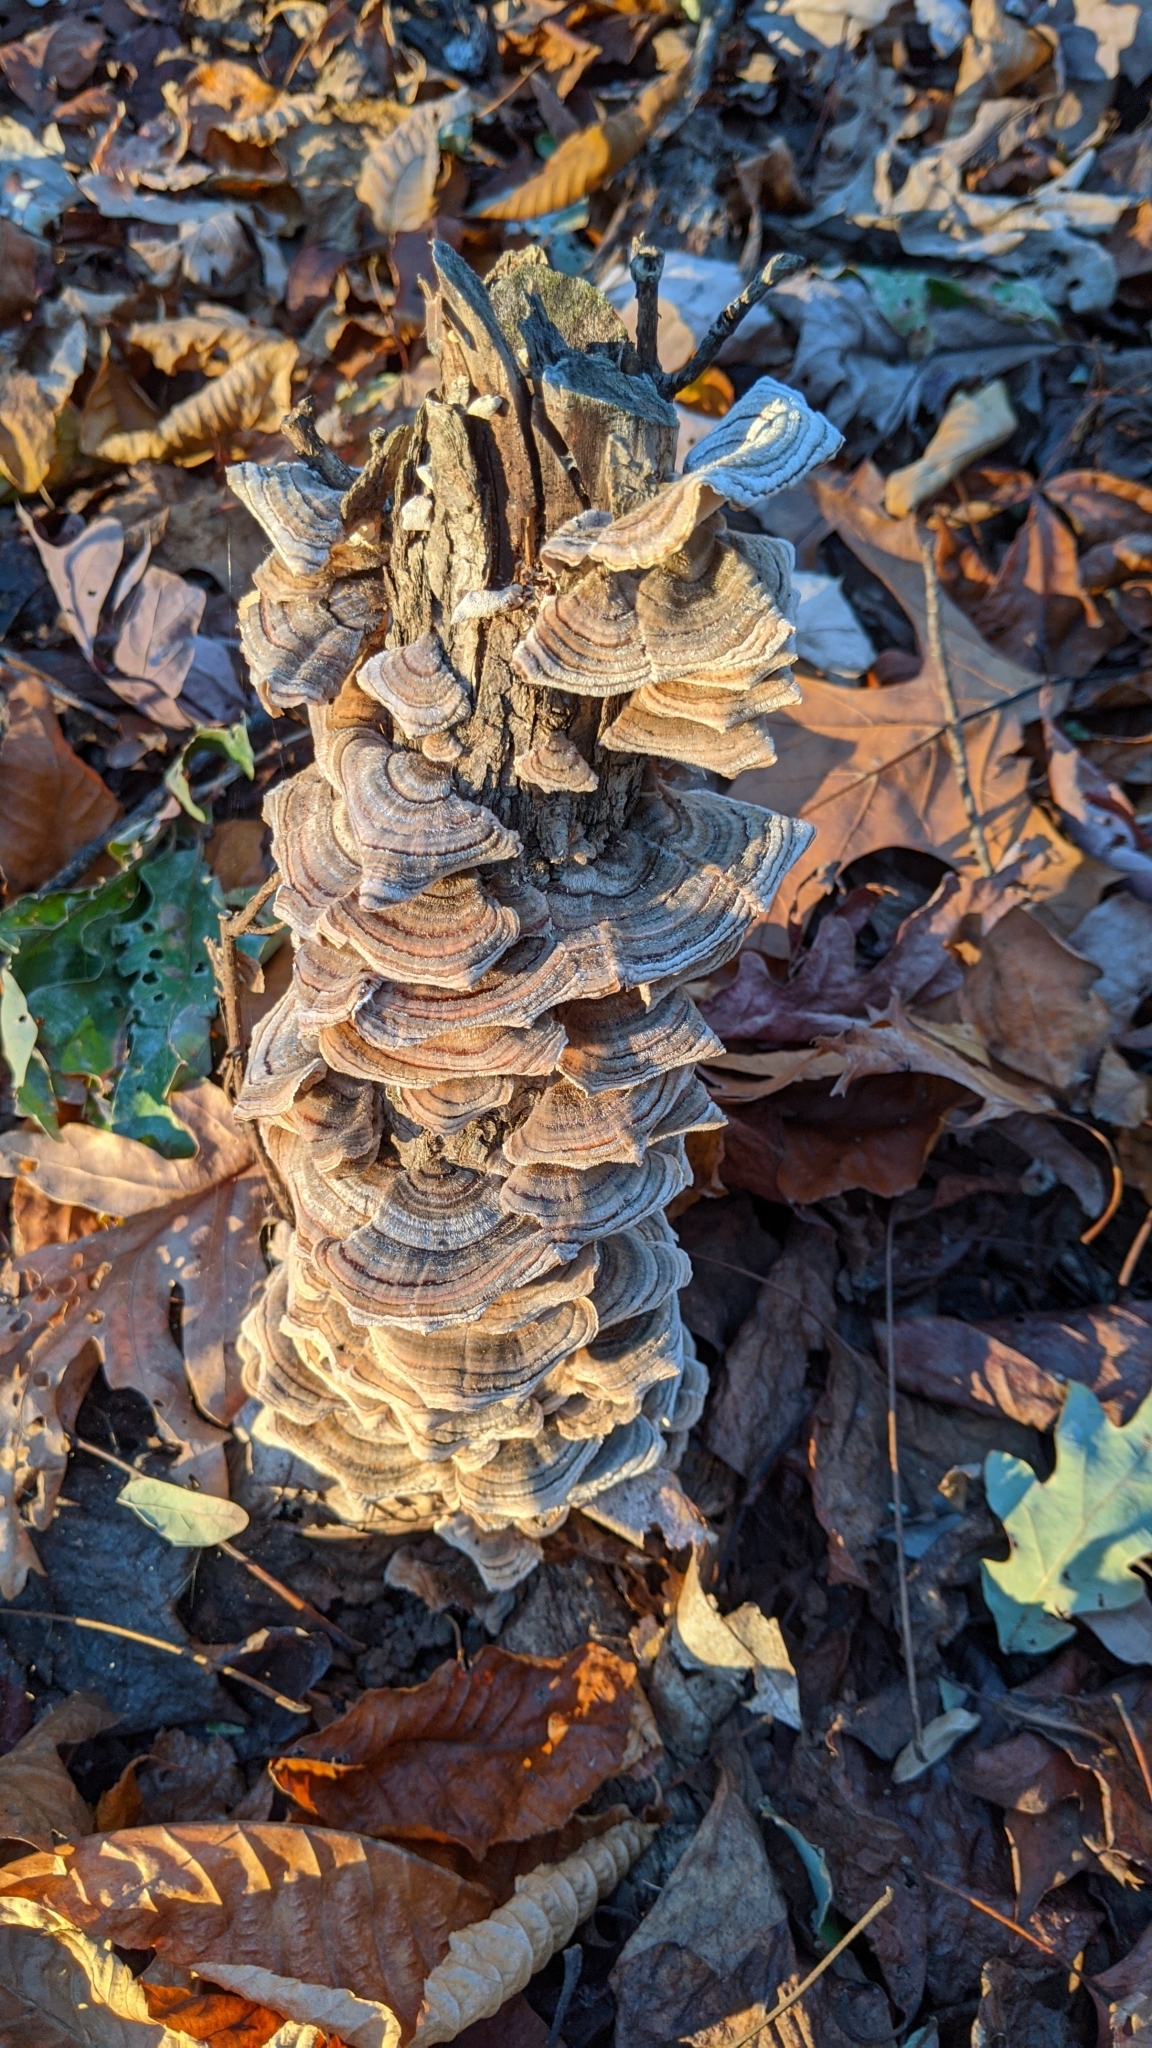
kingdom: Fungi
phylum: Basidiomycota
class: Agaricomycetes
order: Polyporales
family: Polyporaceae
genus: Trametes
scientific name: Trametes versicolor
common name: Turkeytail
